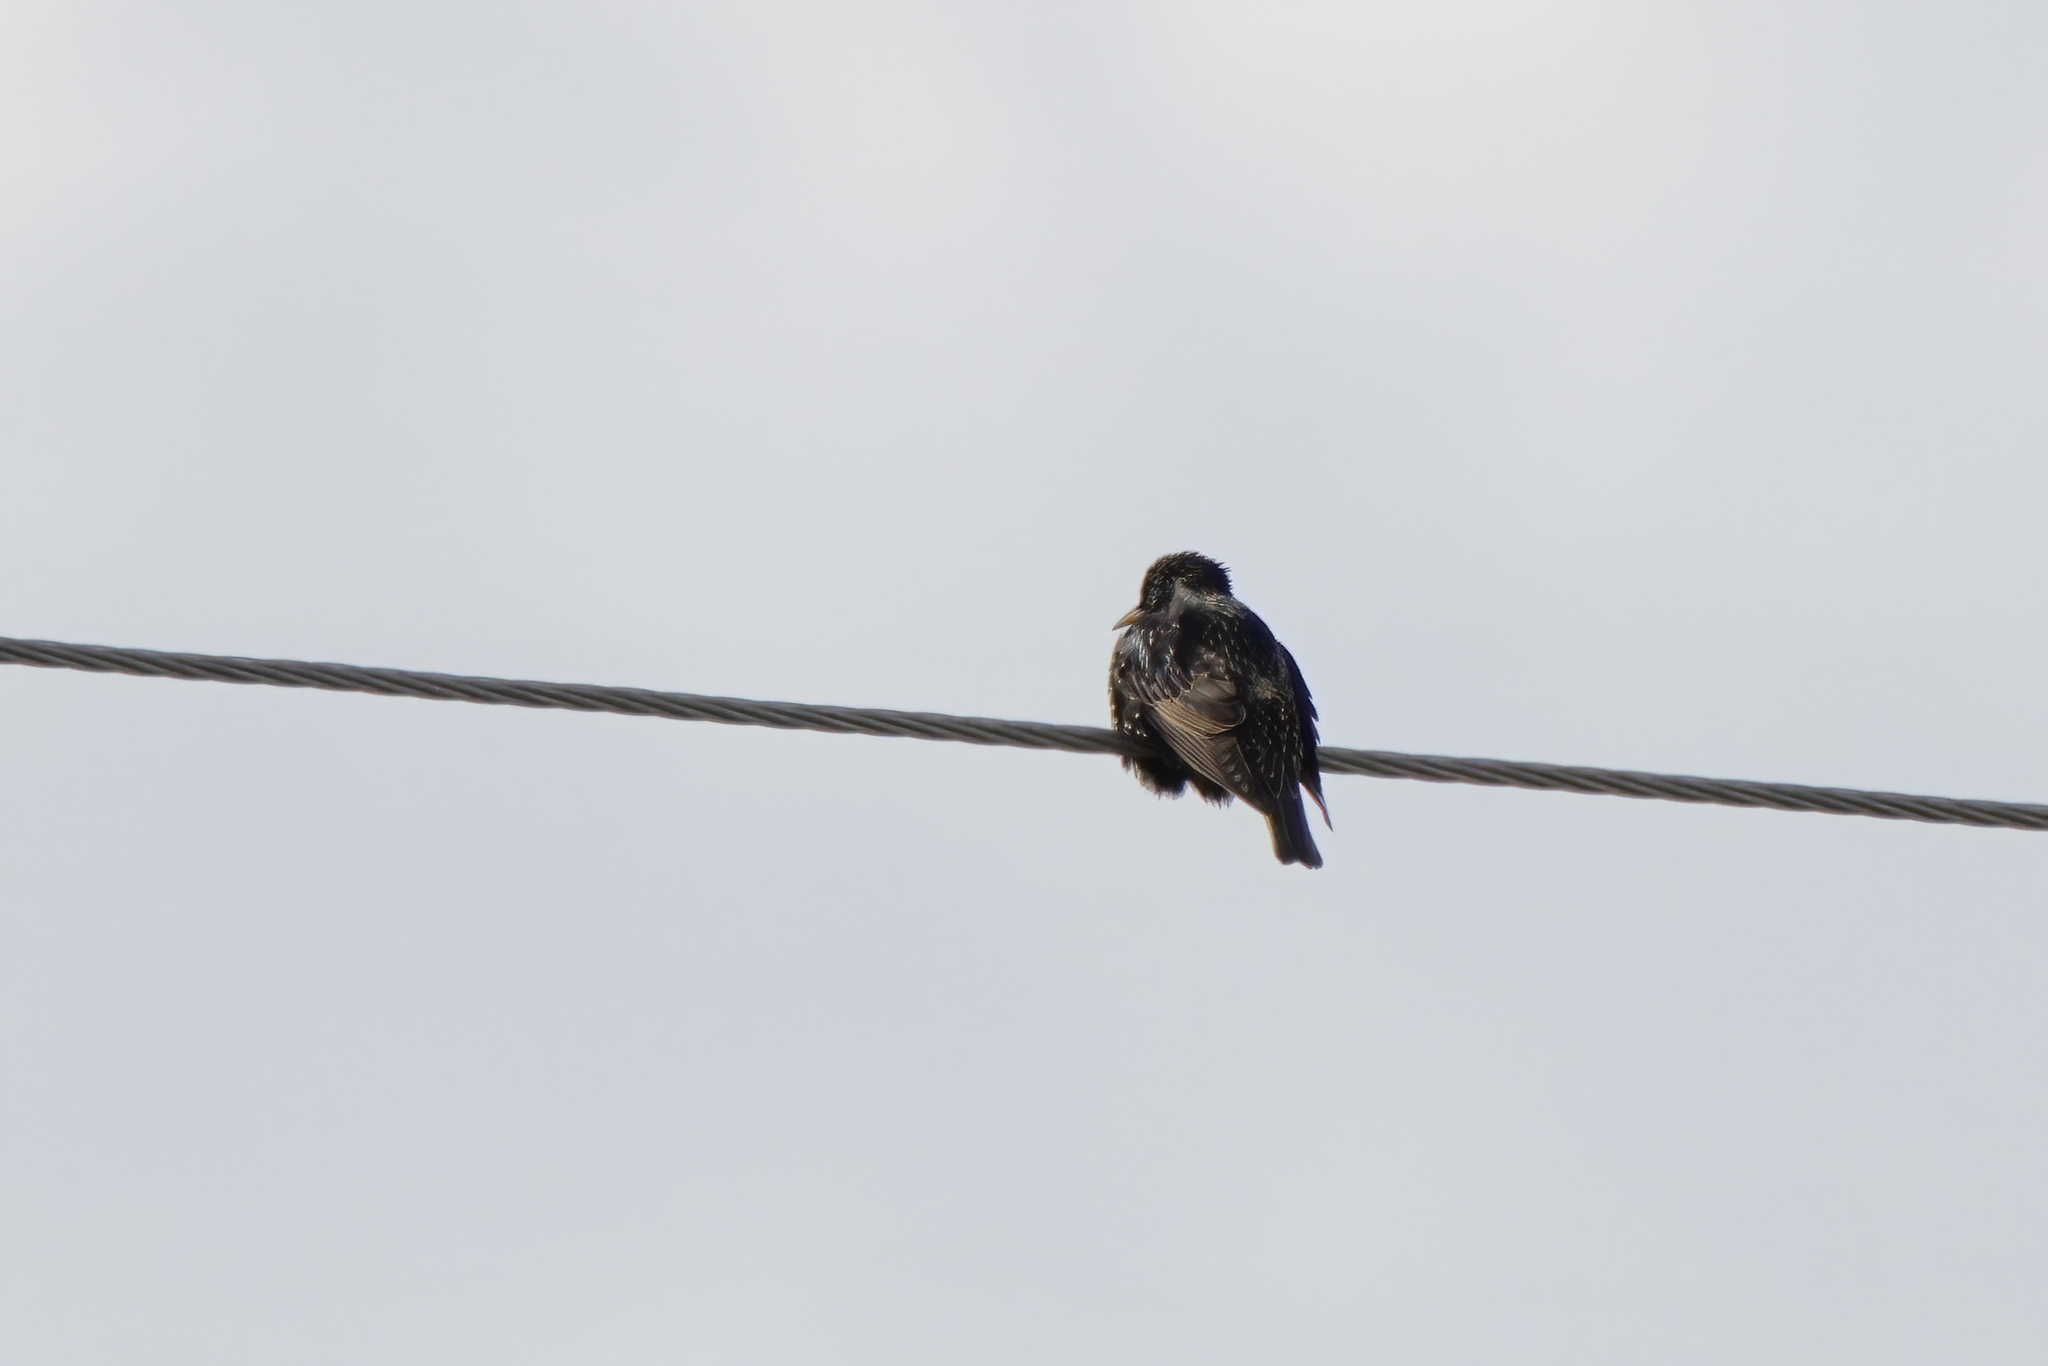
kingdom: Animalia
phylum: Chordata
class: Aves
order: Passeriformes
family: Sturnidae
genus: Sturnus
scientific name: Sturnus vulgaris
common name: Common starling
